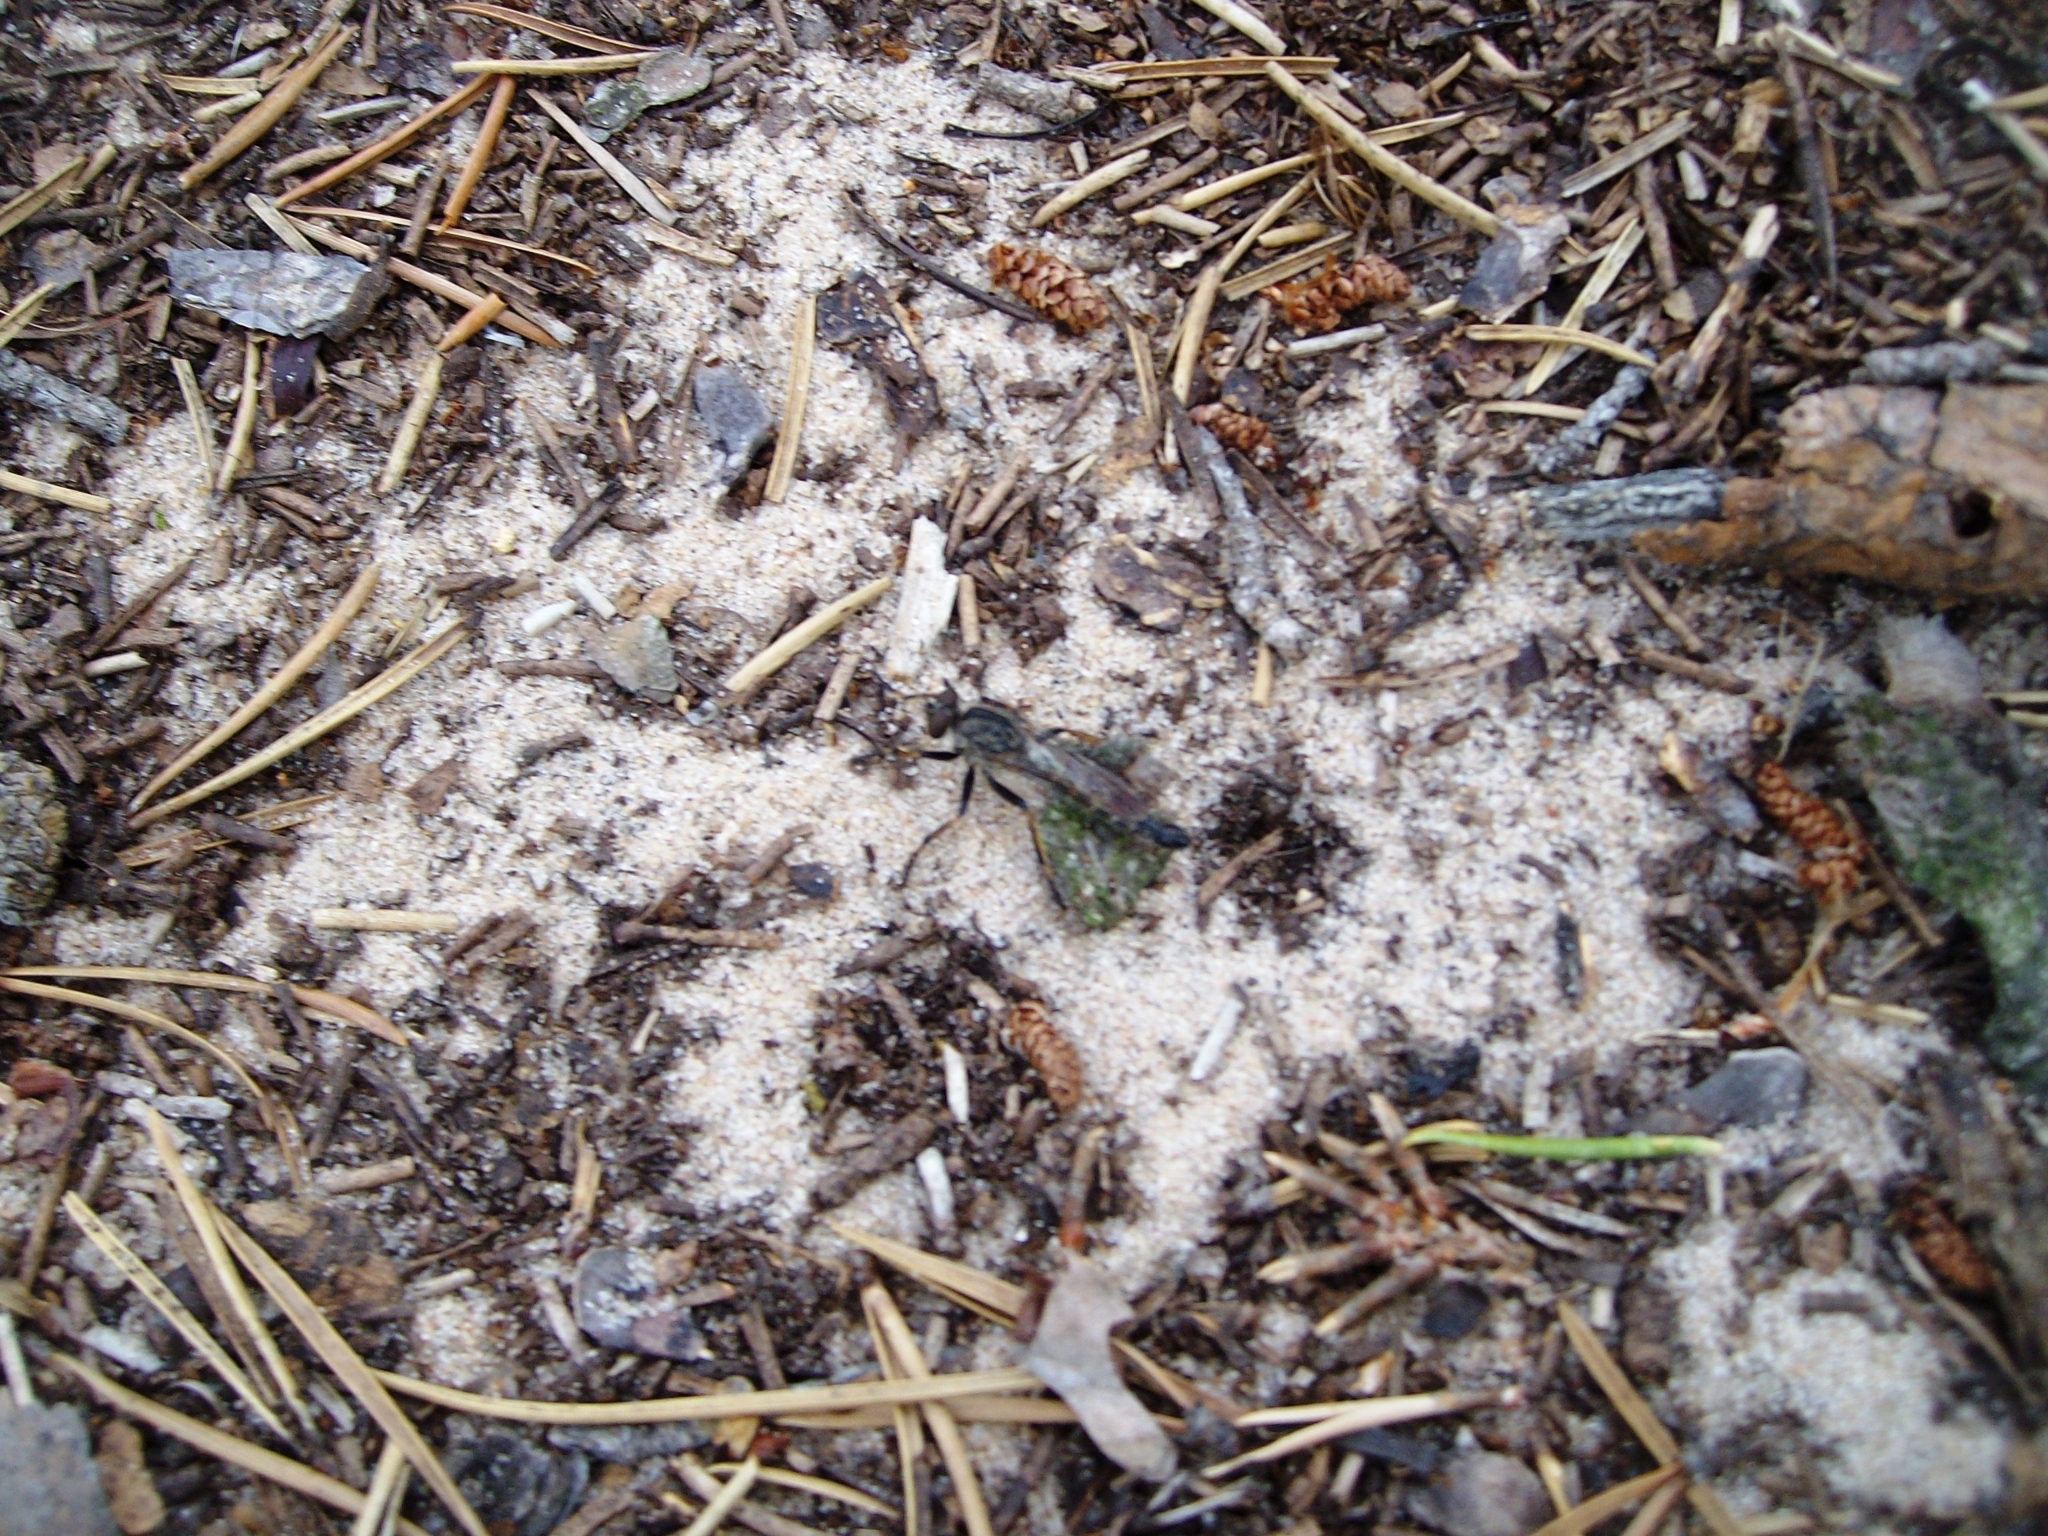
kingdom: Animalia
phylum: Arthropoda
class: Insecta
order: Diptera
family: Asilidae
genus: Machimus
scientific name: Machimus sadyates
